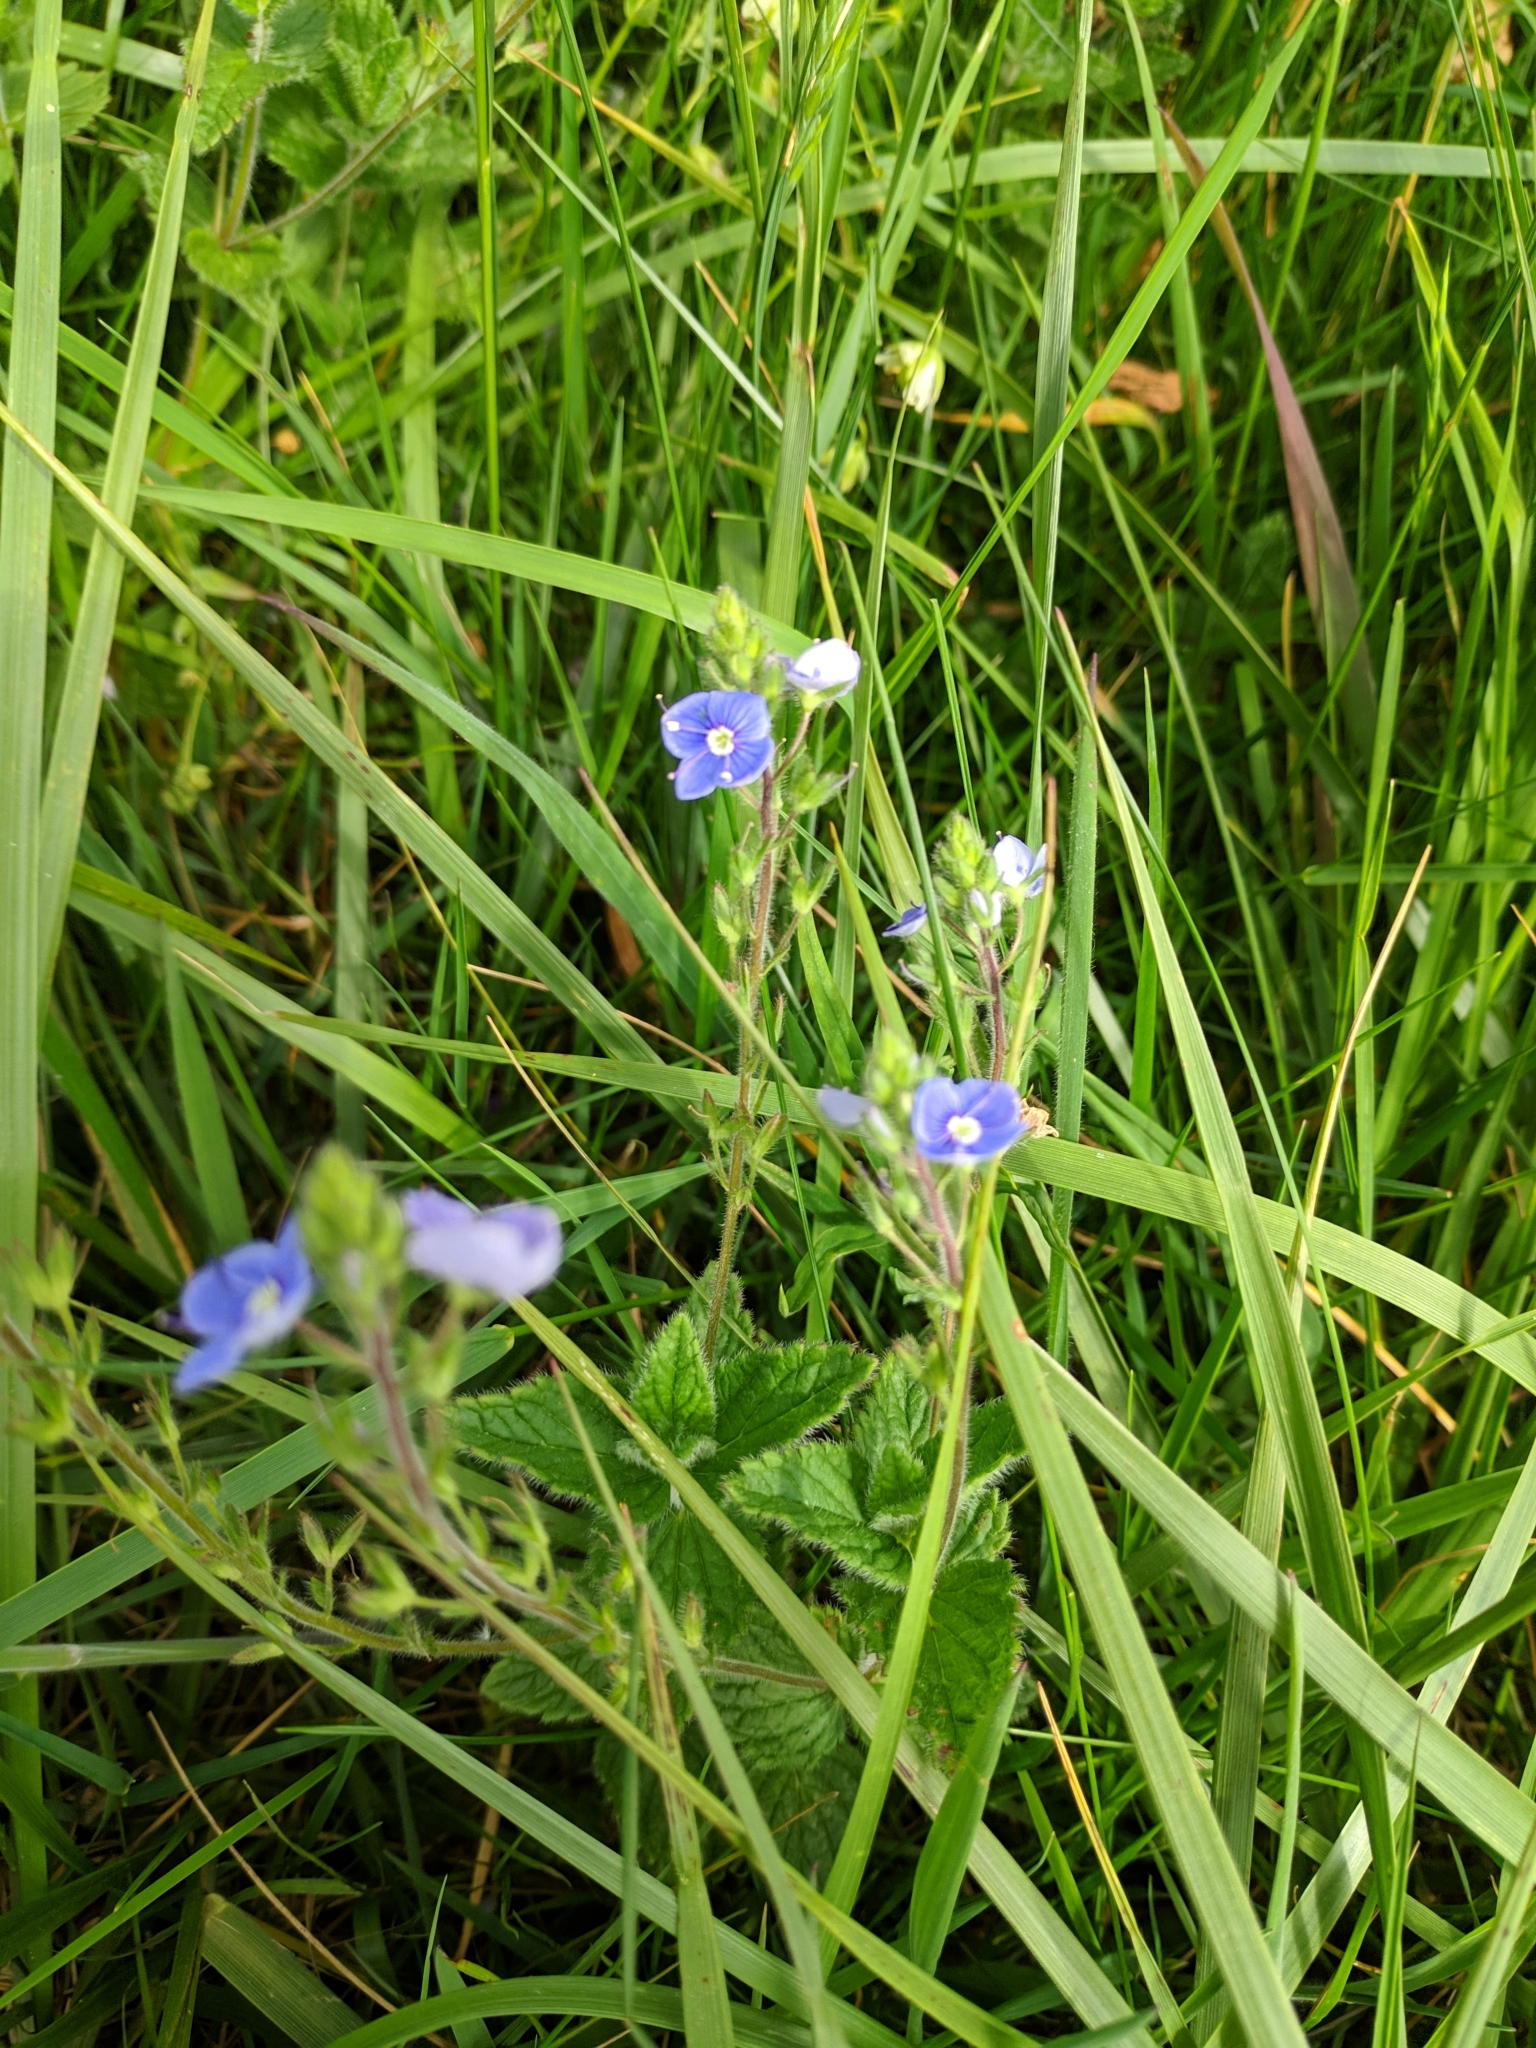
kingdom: Plantae
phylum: Tracheophyta
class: Magnoliopsida
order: Lamiales
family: Plantaginaceae
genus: Veronica
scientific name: Veronica chamaedrys
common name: Germander speedwell
